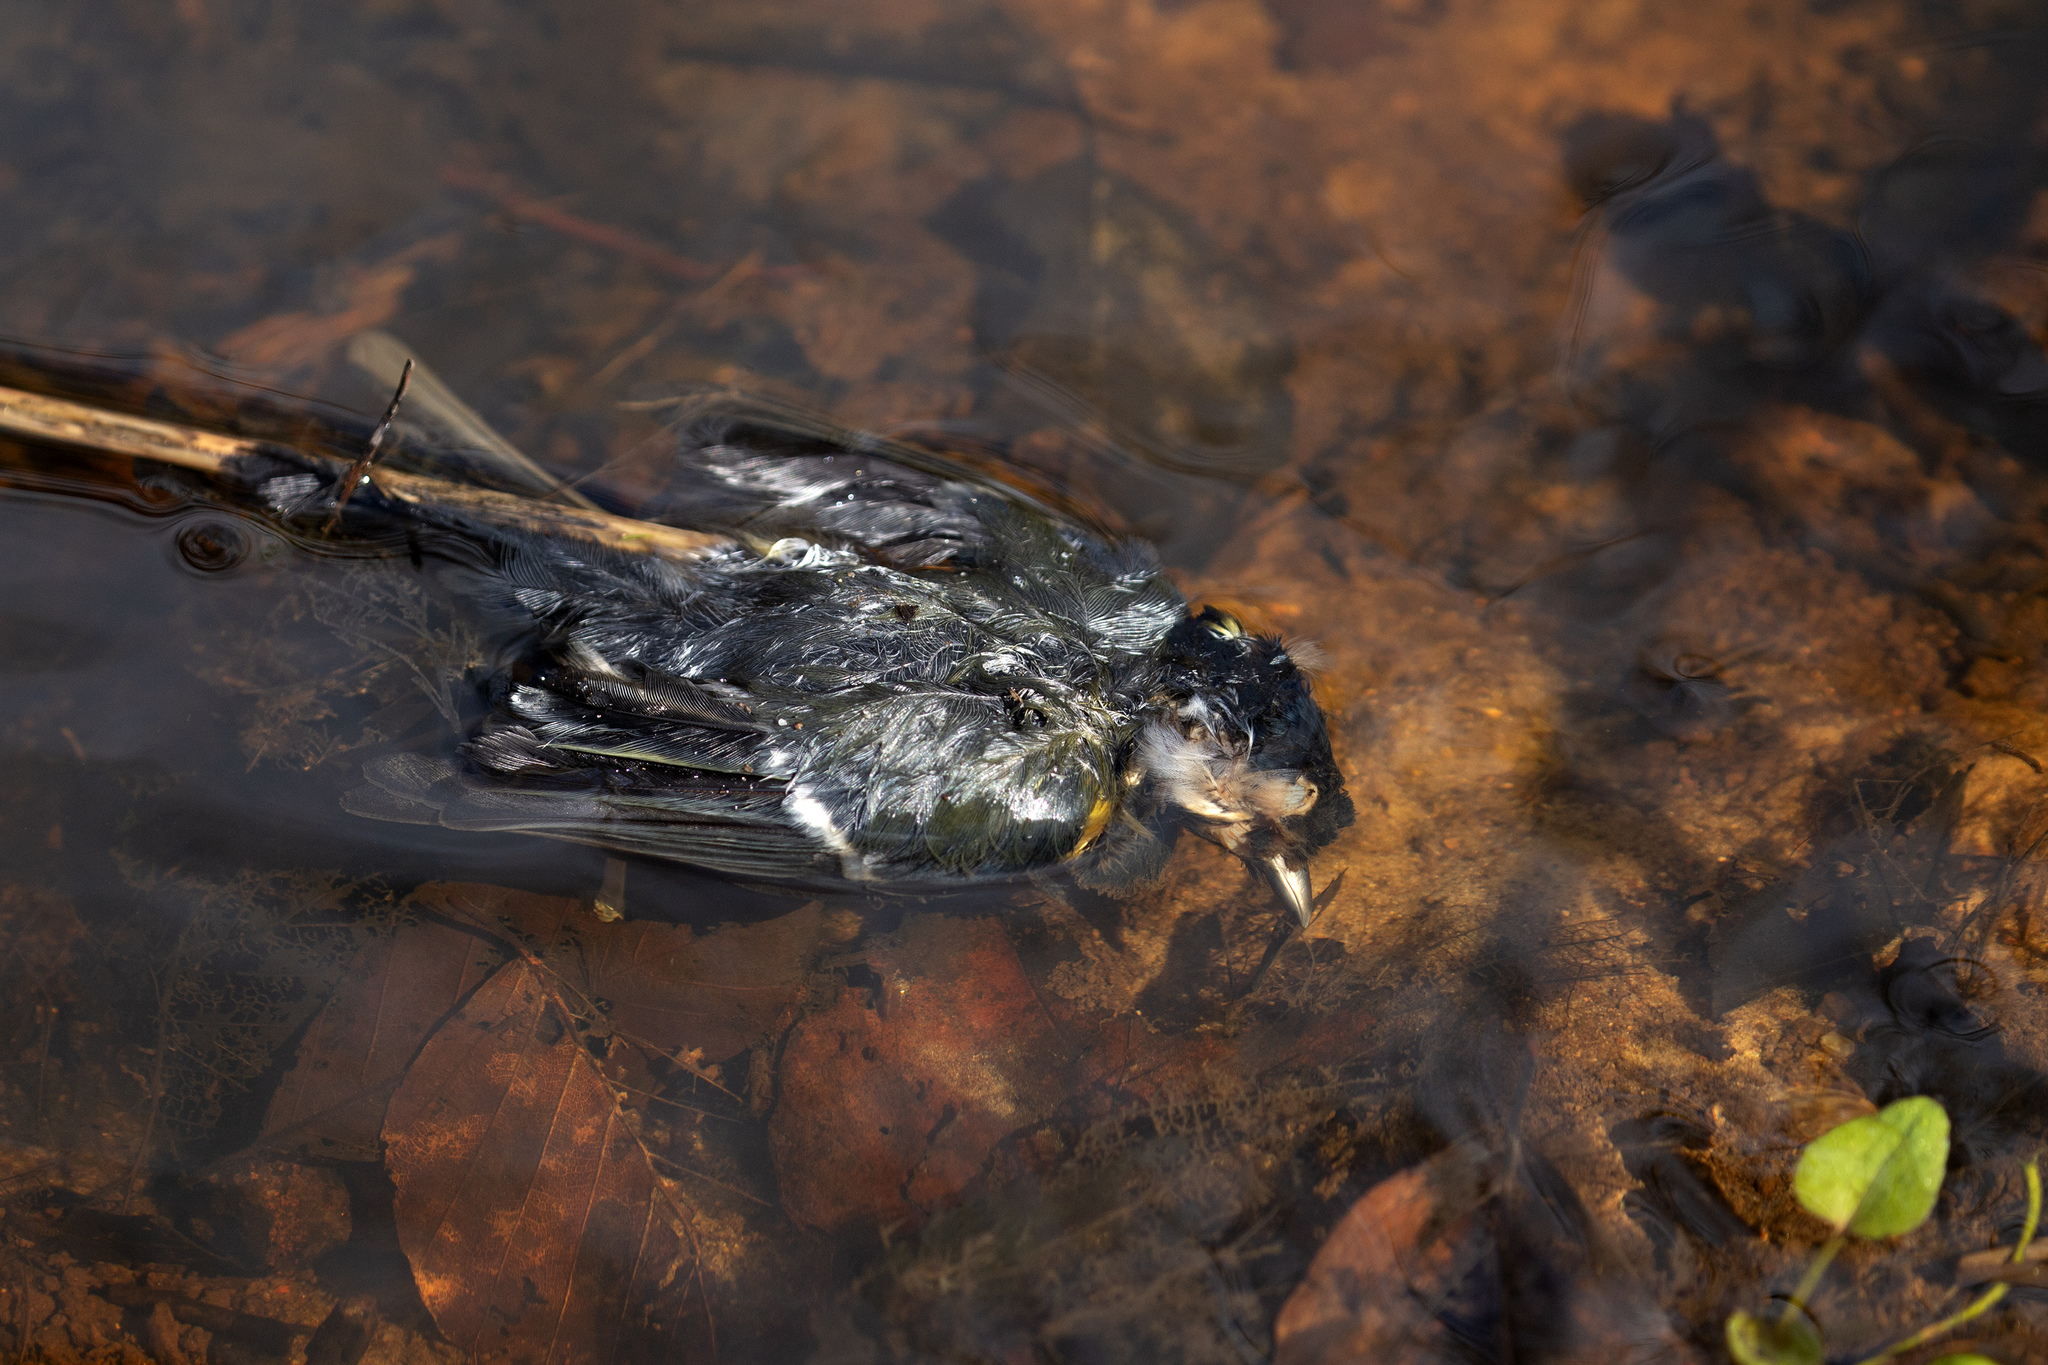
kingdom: Animalia
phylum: Chordata
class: Aves
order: Passeriformes
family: Paridae
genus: Parus
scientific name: Parus major
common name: Great tit
